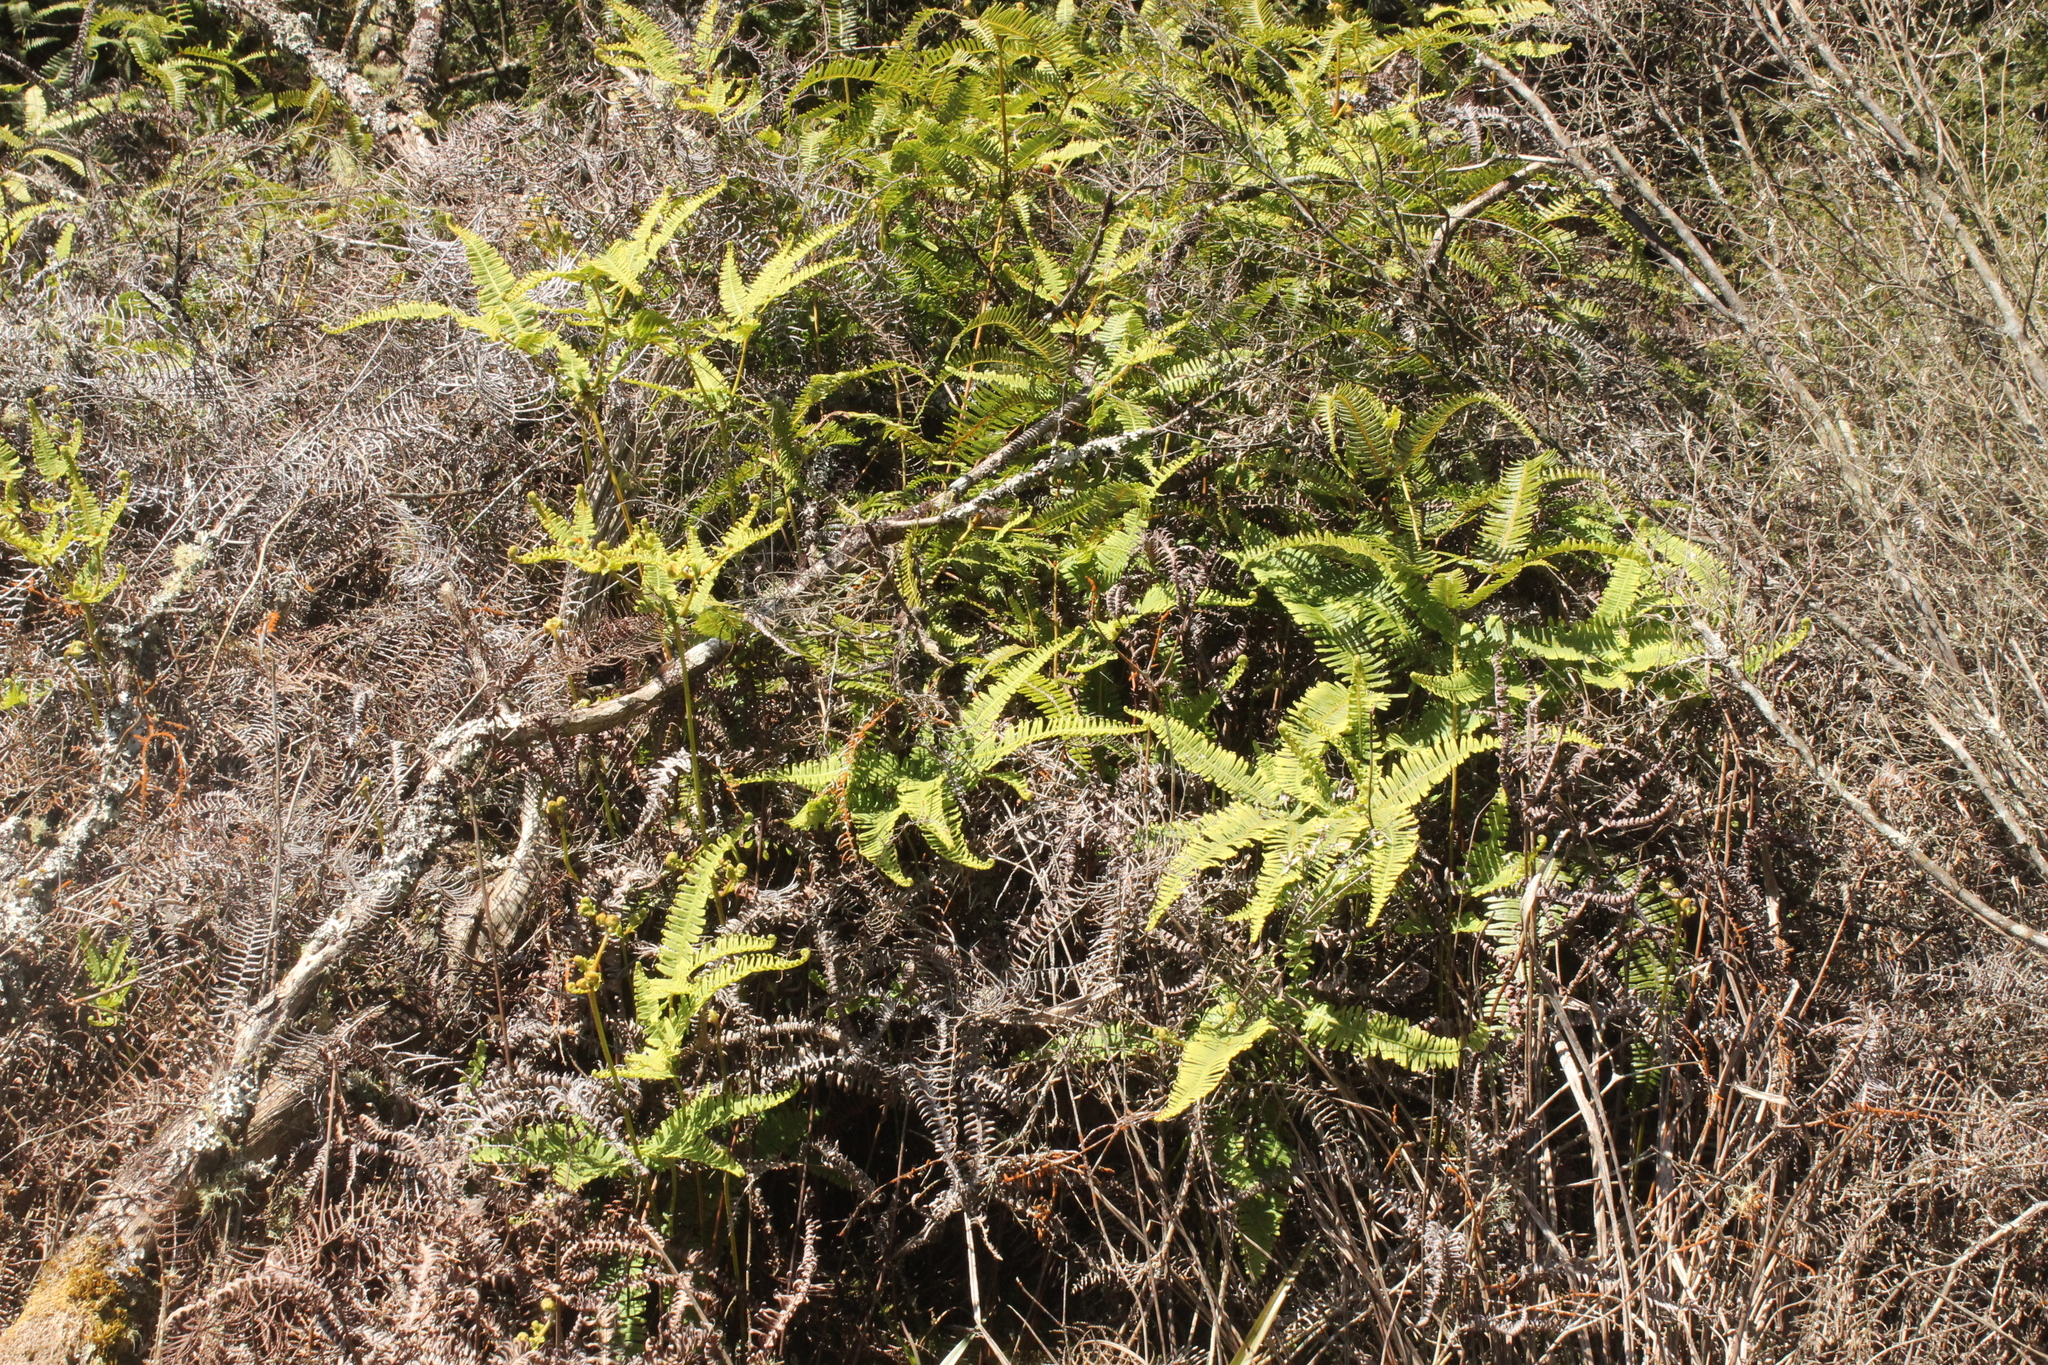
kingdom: Plantae
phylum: Tracheophyta
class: Polypodiopsida
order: Gleicheniales
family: Gleicheniaceae
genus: Dicranopteris
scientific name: Dicranopteris linearis
